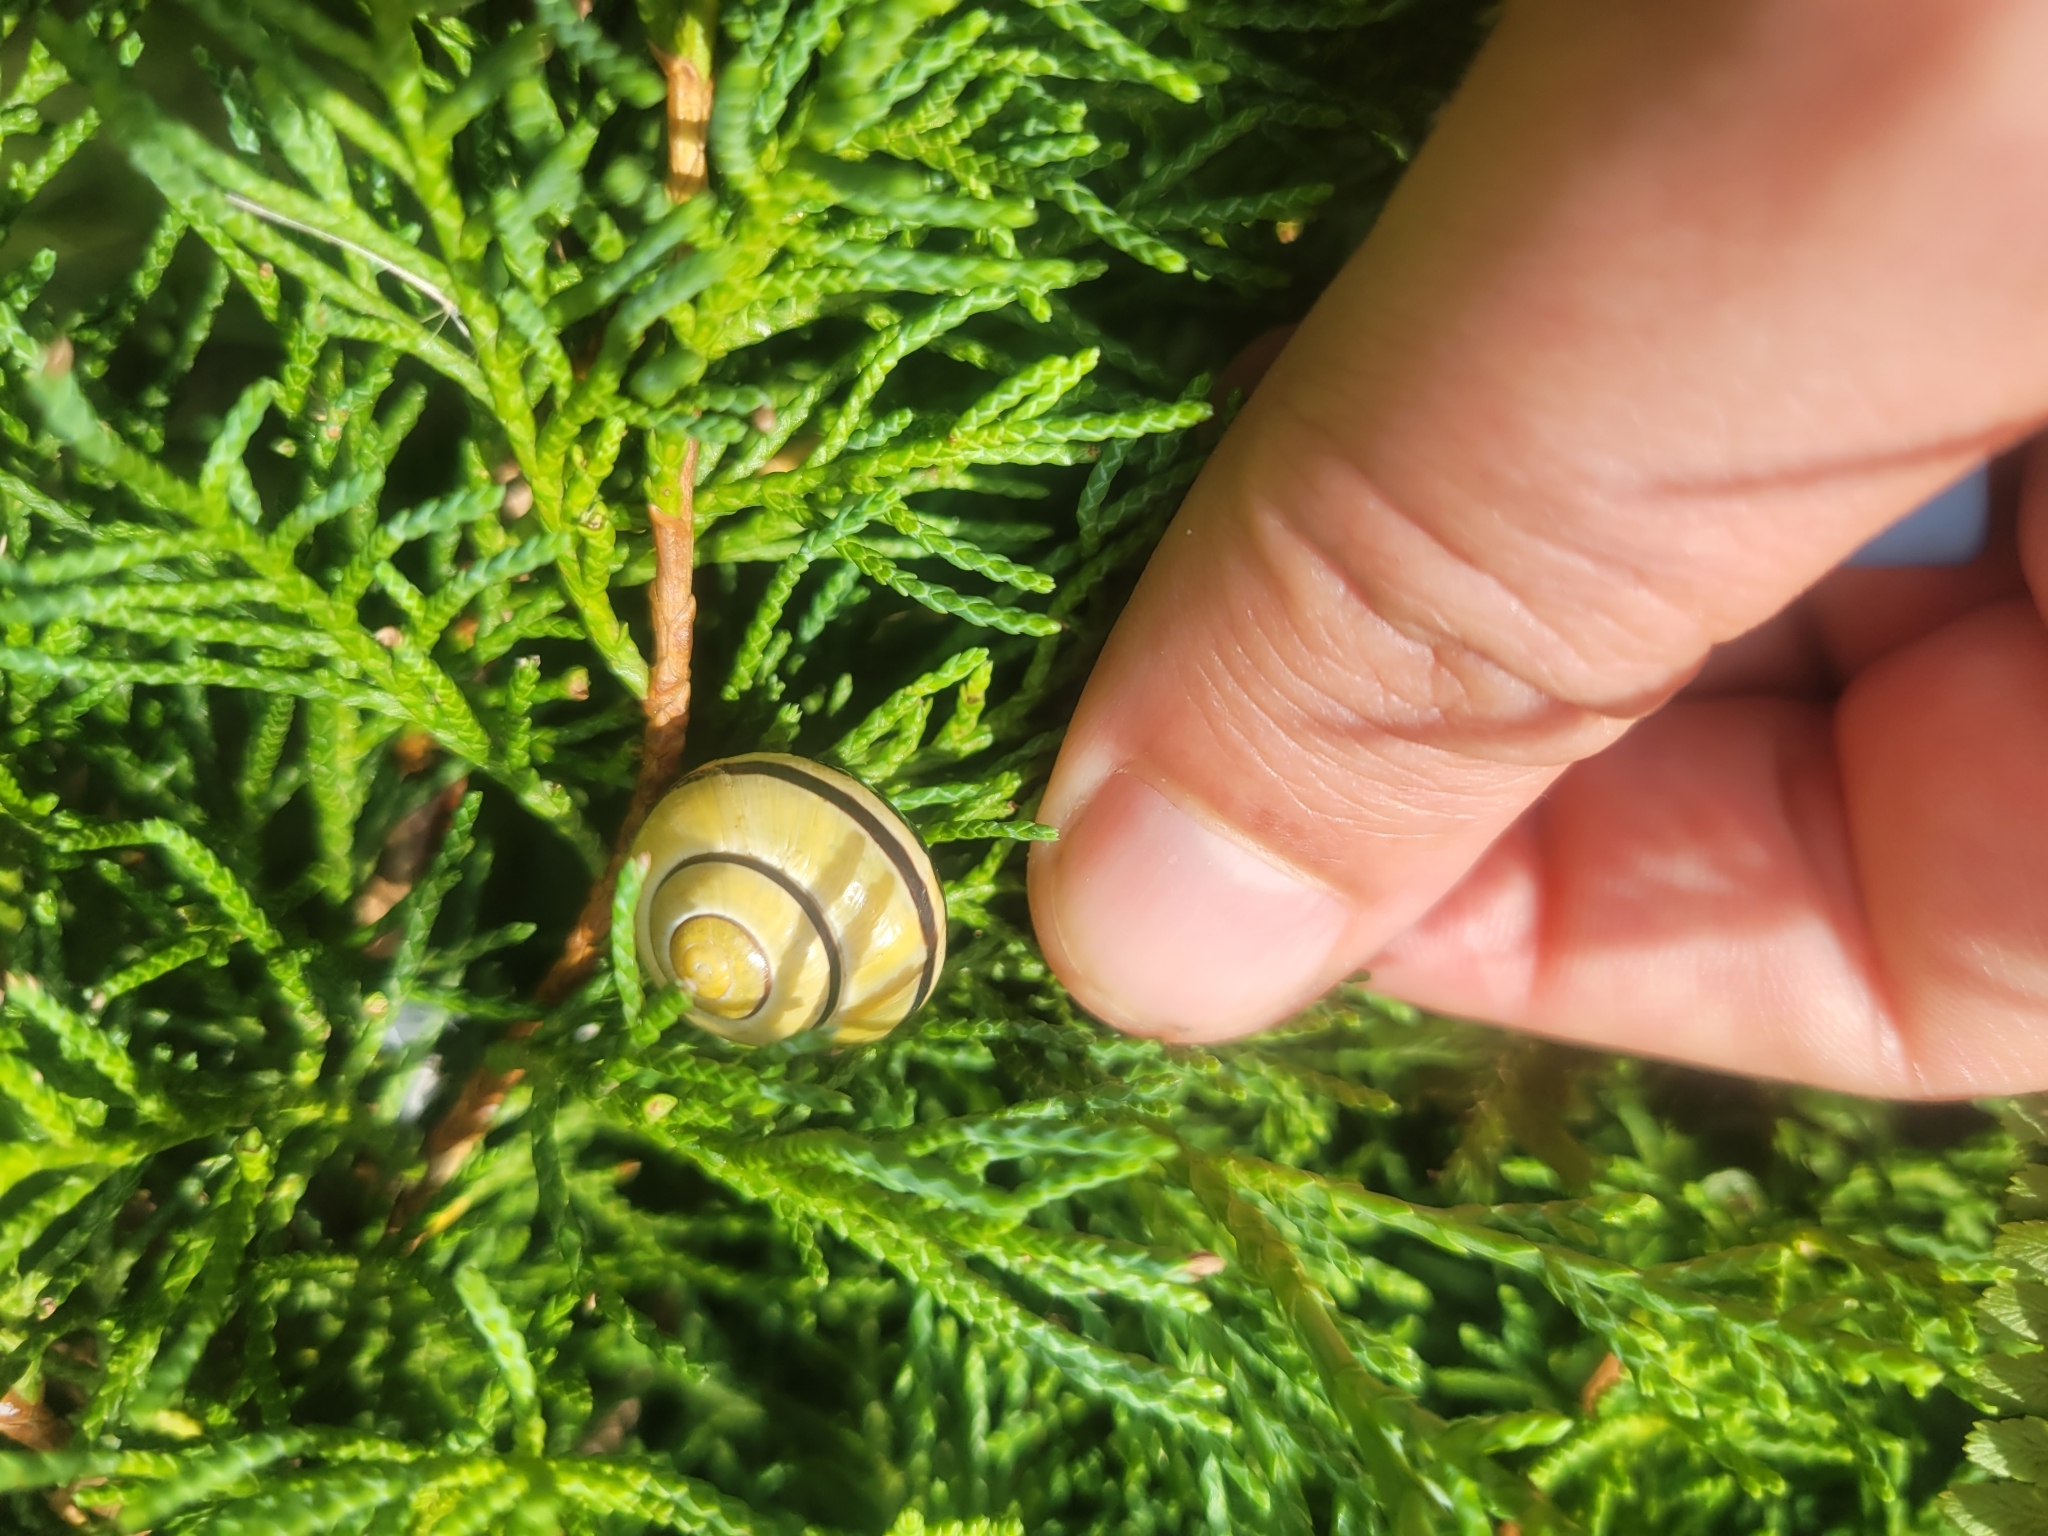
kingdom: Animalia
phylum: Mollusca
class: Gastropoda
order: Stylommatophora
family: Helicidae
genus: Cepaea
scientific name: Cepaea nemoralis
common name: Grovesnail
